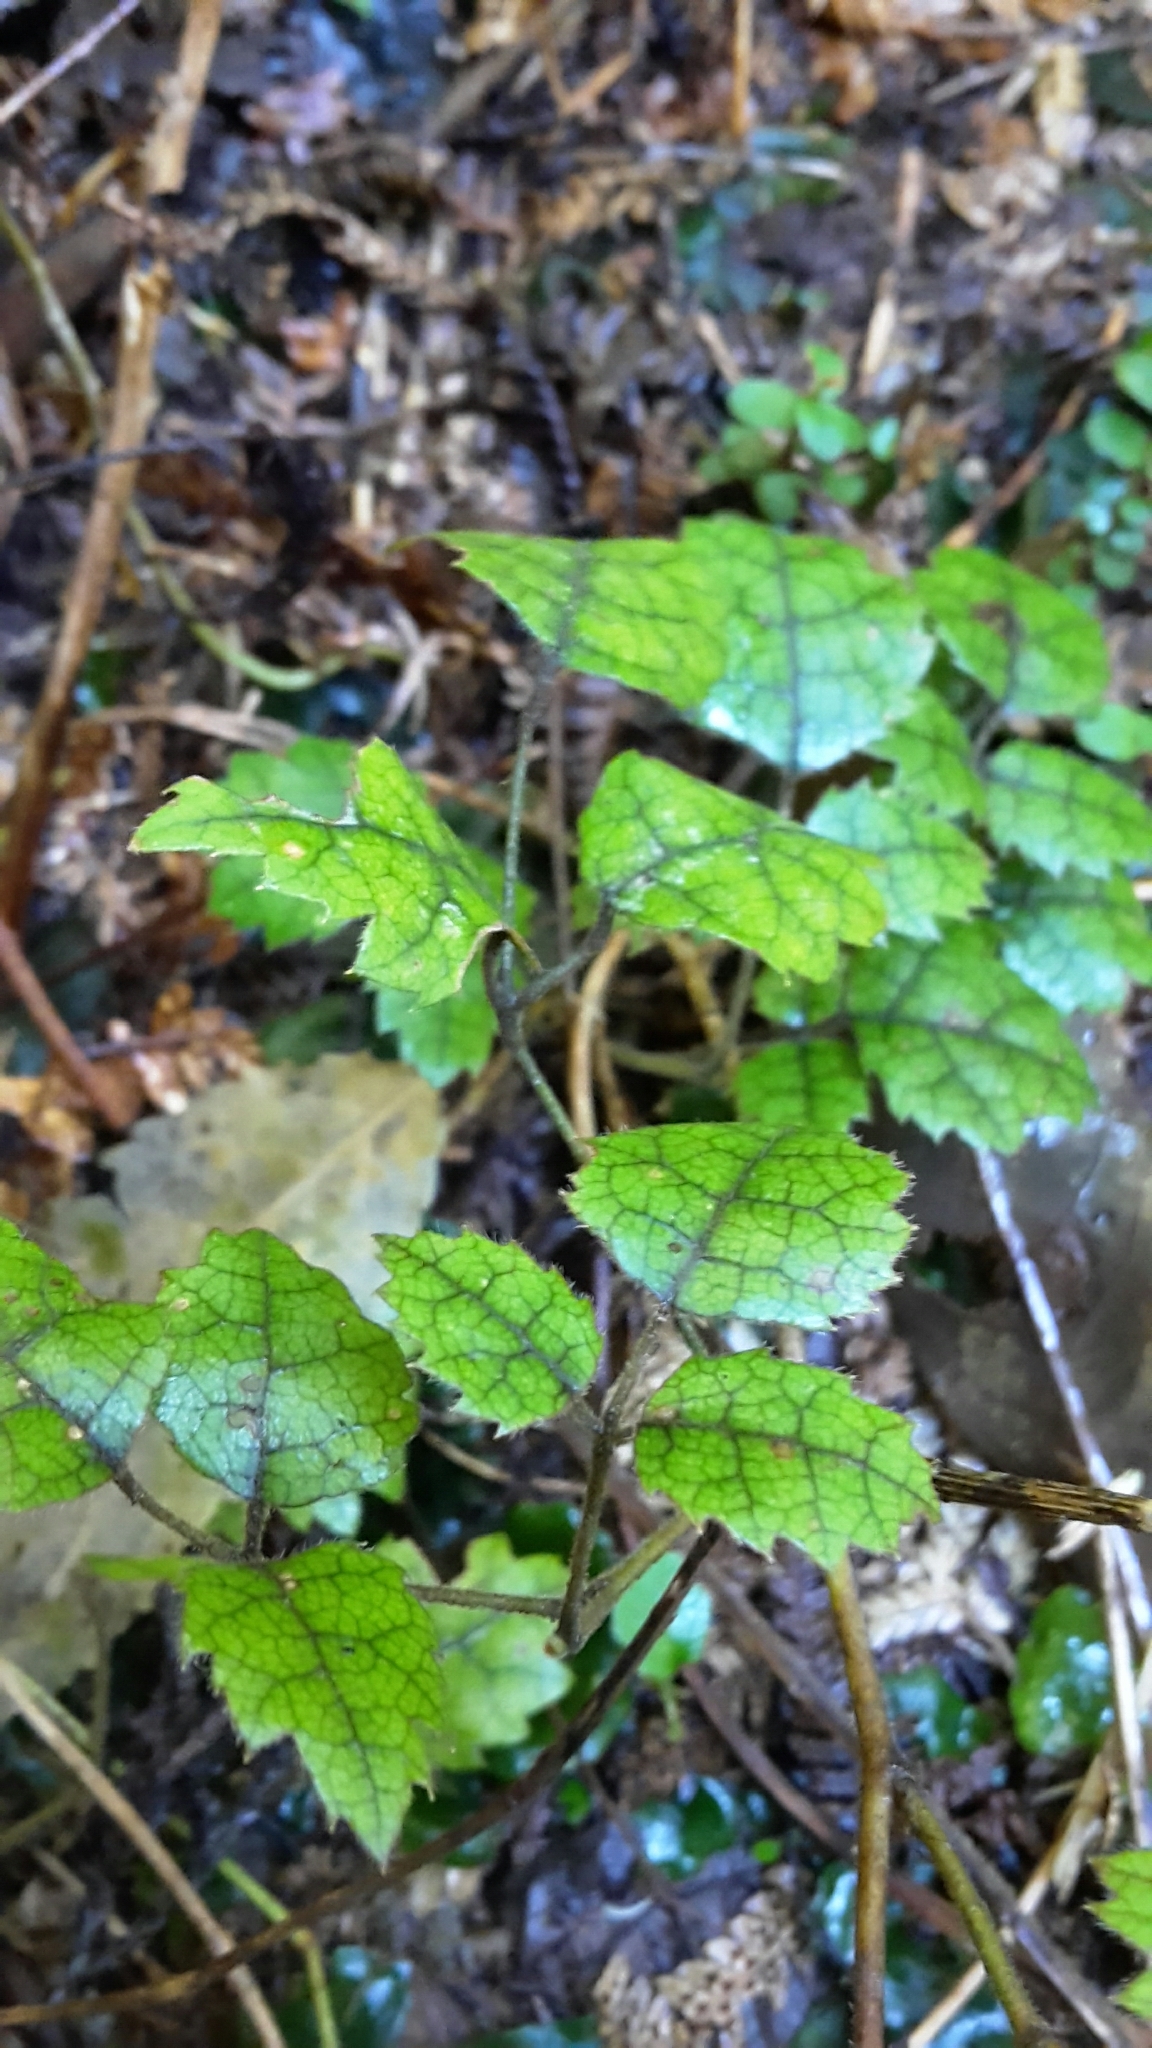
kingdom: Plantae
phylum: Tracheophyta
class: Magnoliopsida
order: Rosales
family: Rosaceae
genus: Rubus
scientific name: Rubus australis
